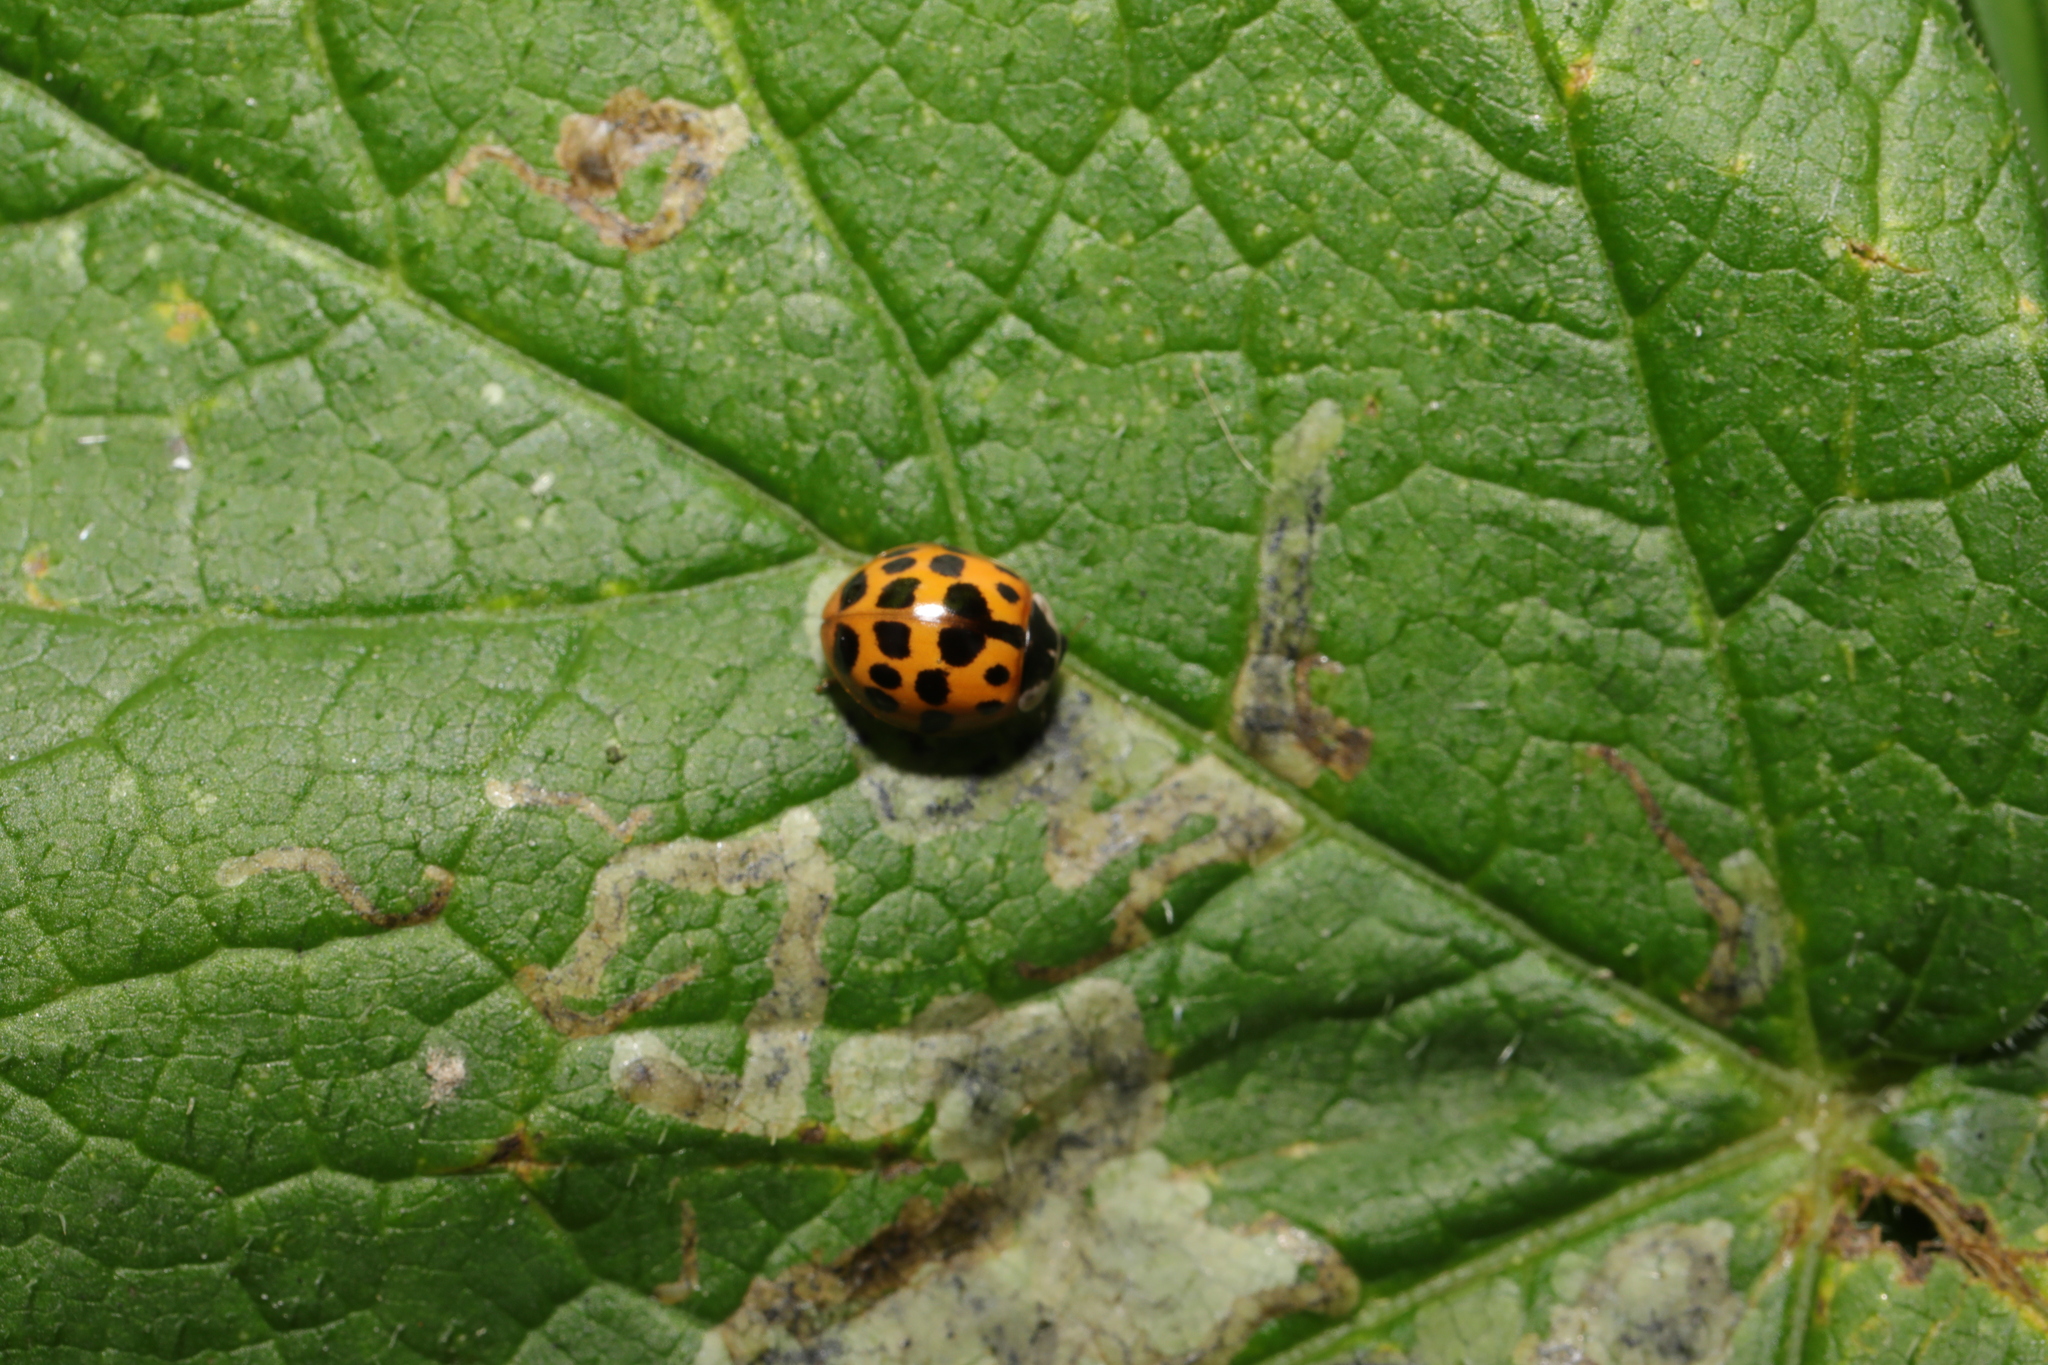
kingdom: Animalia
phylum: Arthropoda
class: Insecta
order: Coleoptera
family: Coccinellidae
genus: Harmonia
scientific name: Harmonia axyridis
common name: Harlequin ladybird
